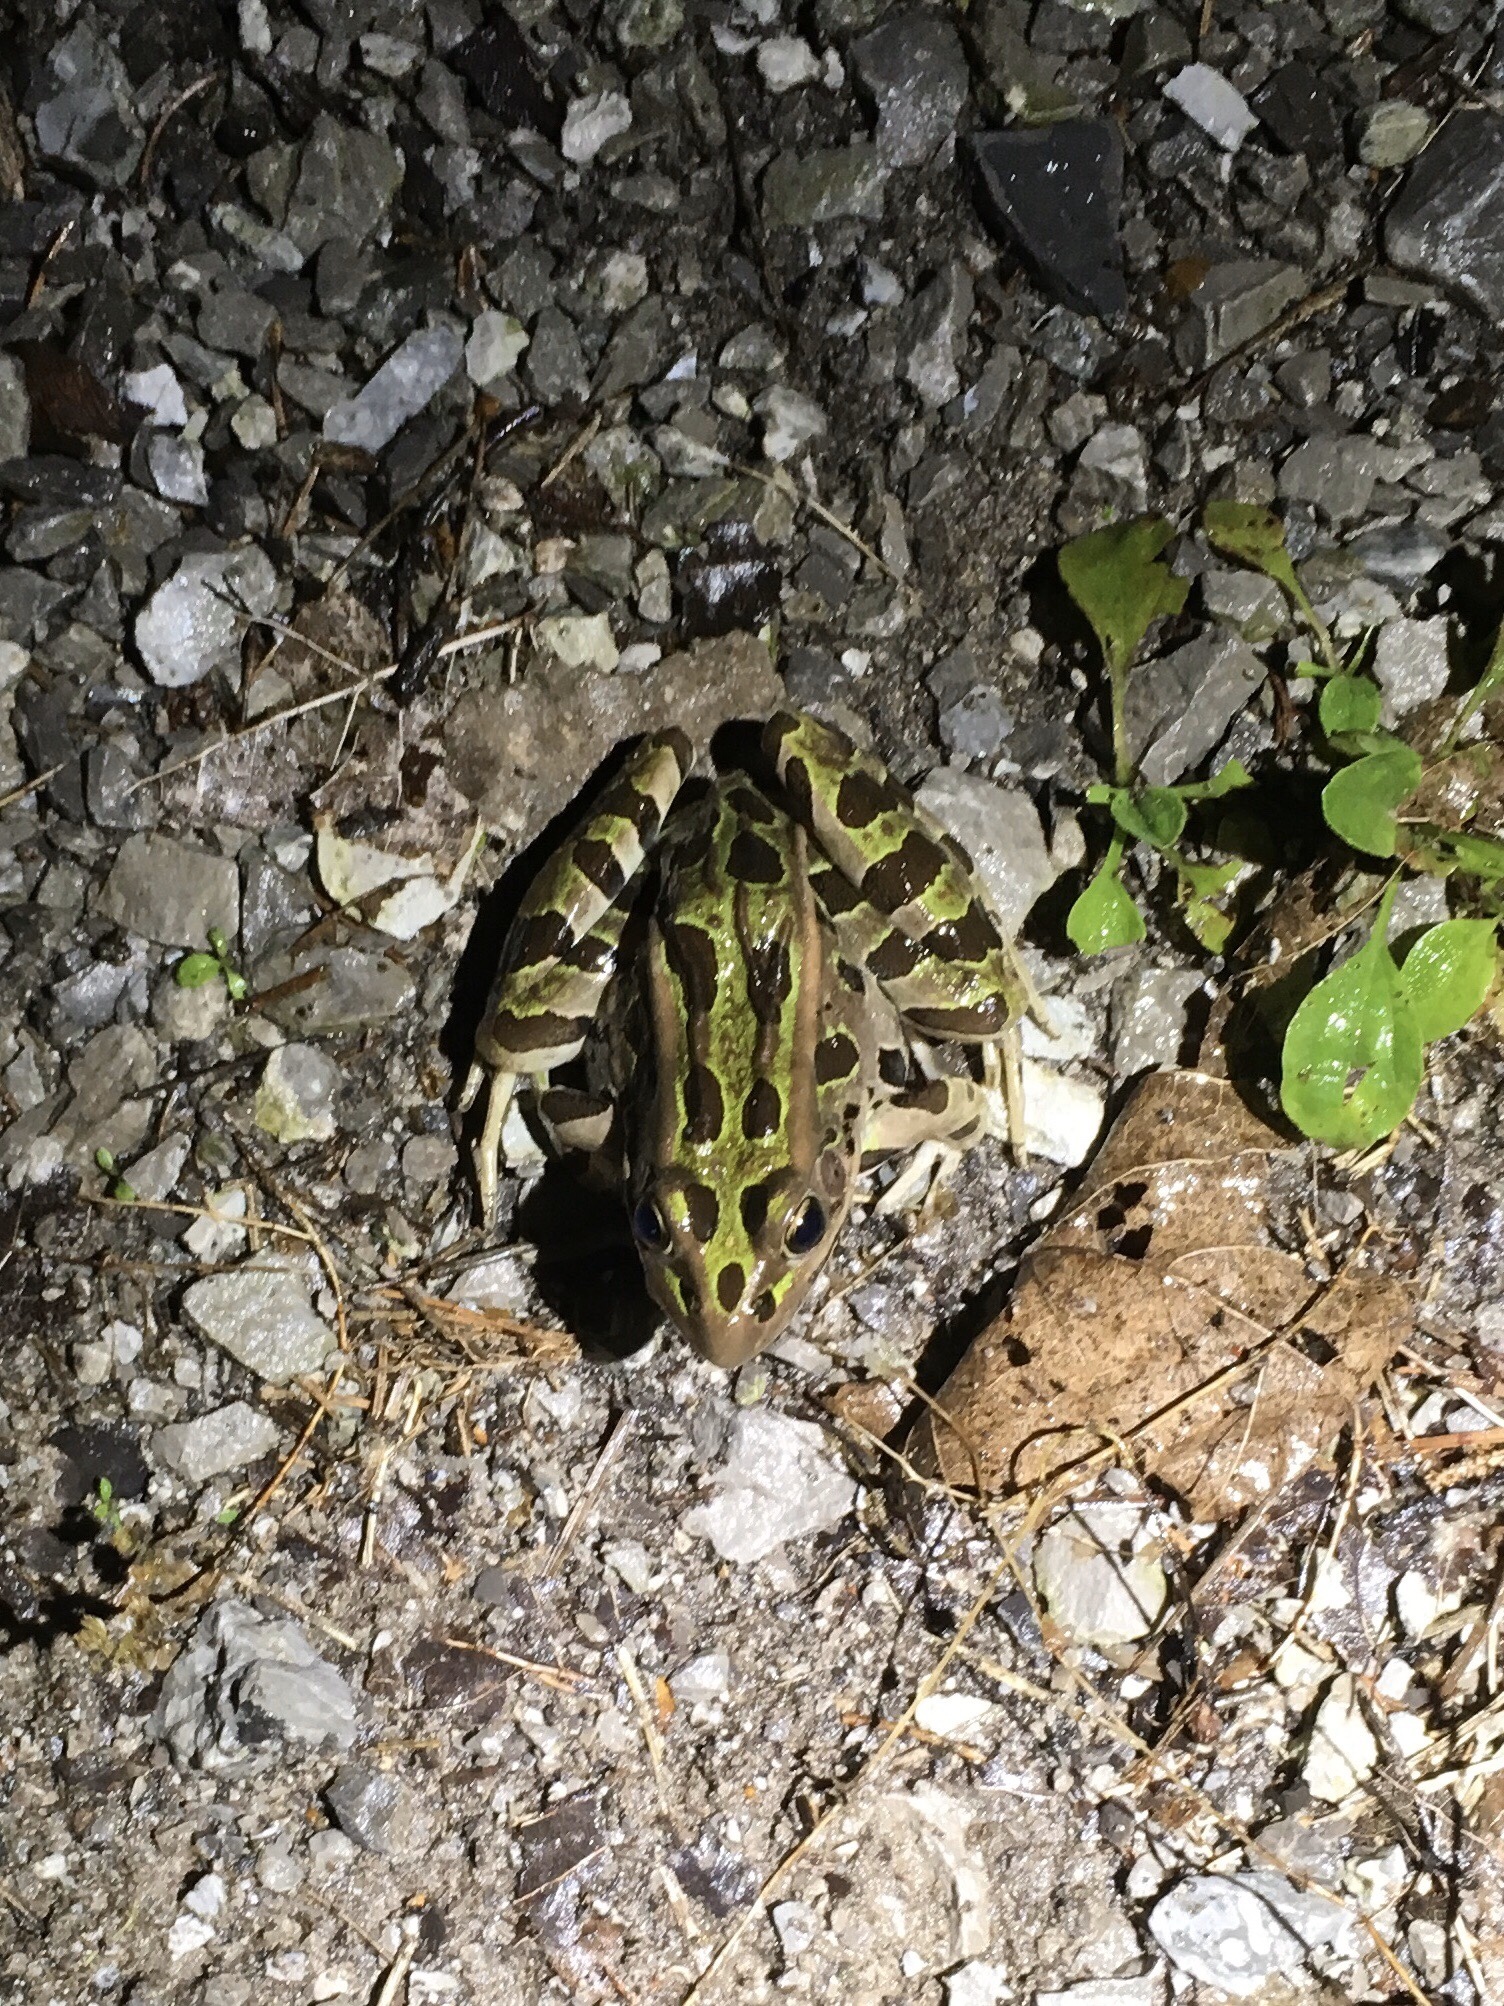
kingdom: Animalia
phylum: Chordata
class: Amphibia
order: Anura
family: Ranidae
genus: Lithobates
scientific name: Lithobates pipiens
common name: Northern leopard frog
